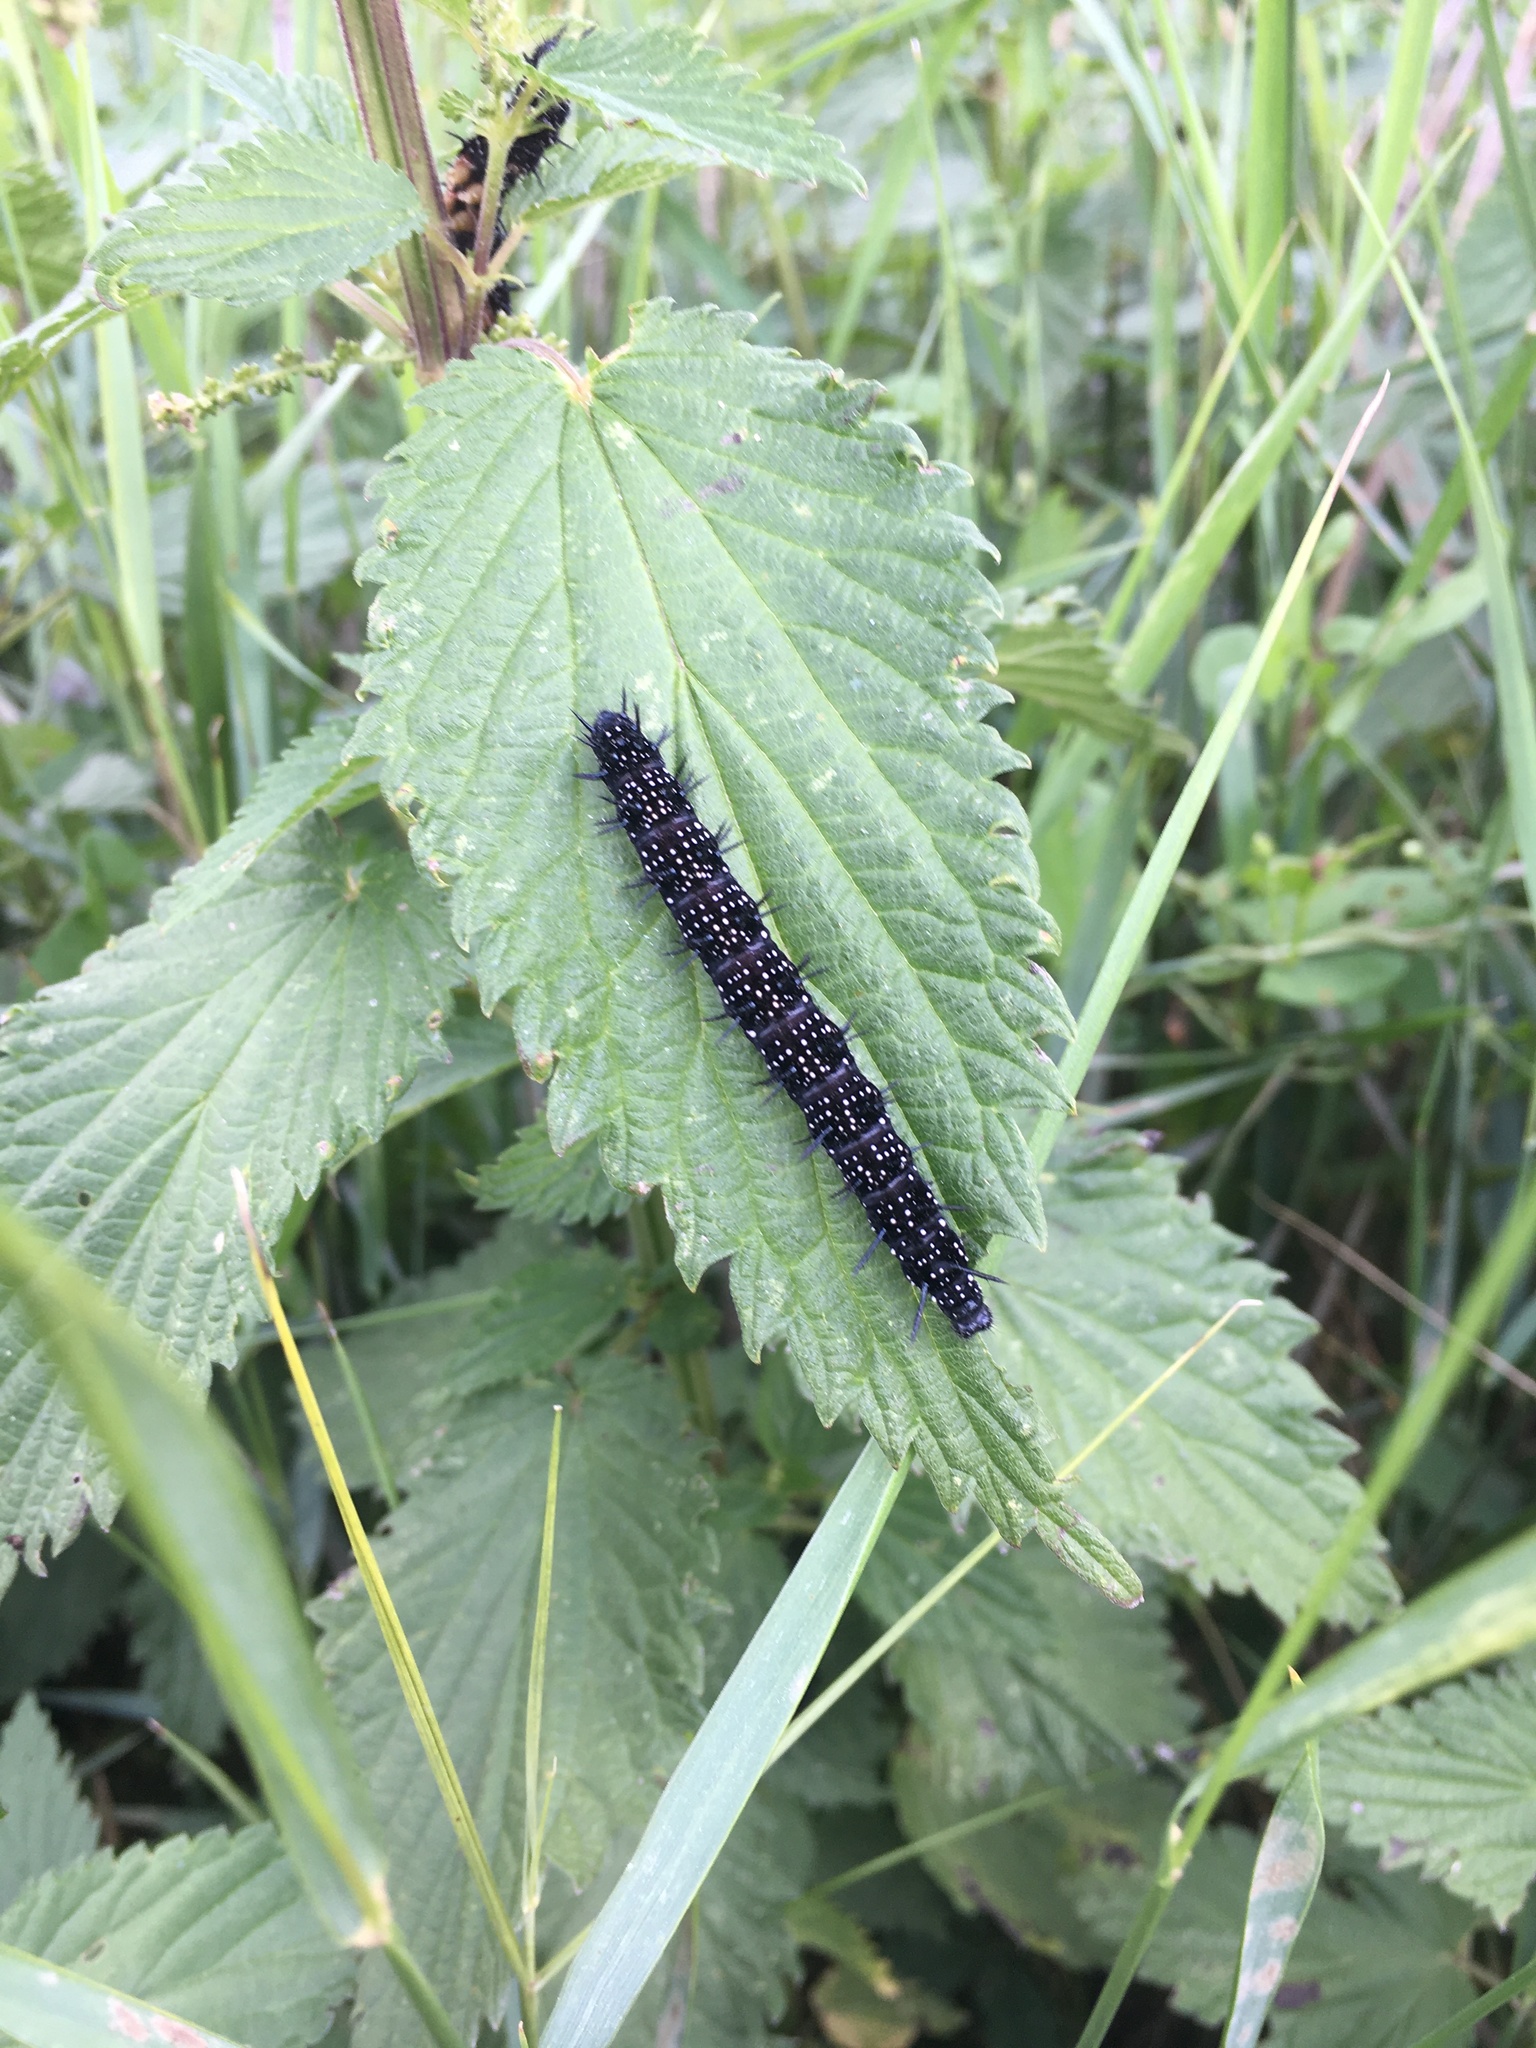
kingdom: Animalia
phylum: Arthropoda
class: Insecta
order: Lepidoptera
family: Nymphalidae
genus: Aglais
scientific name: Aglais io
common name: Peacock
